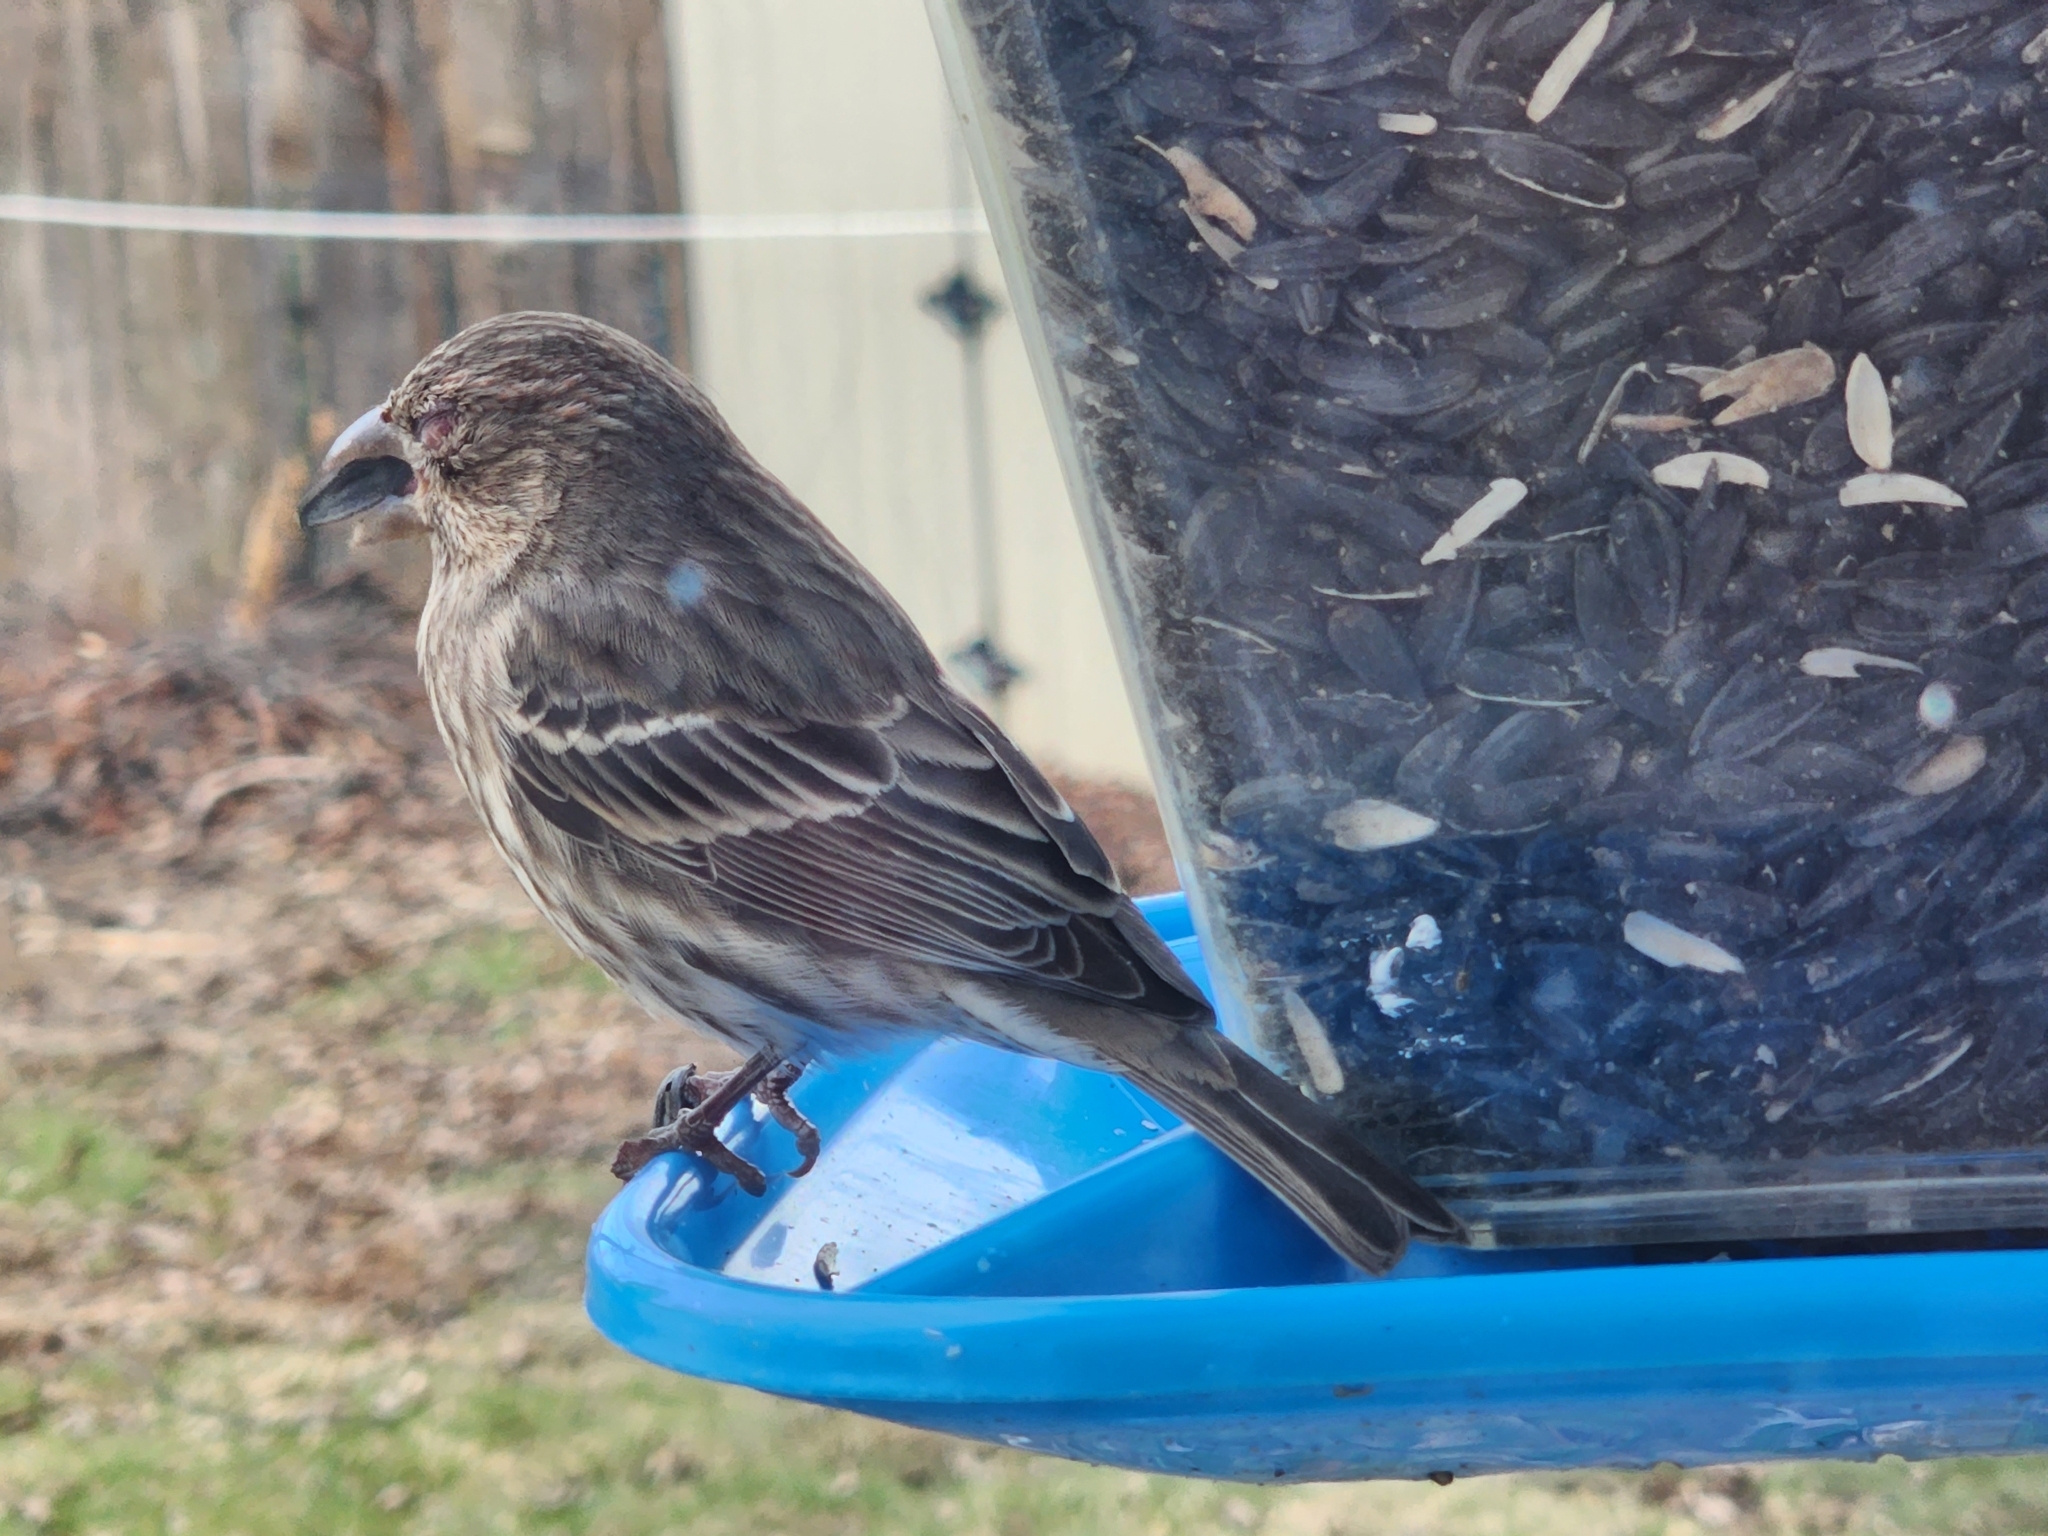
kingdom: Animalia
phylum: Chordata
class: Aves
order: Passeriformes
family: Fringillidae
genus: Haemorhous
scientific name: Haemorhous mexicanus
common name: House finch
